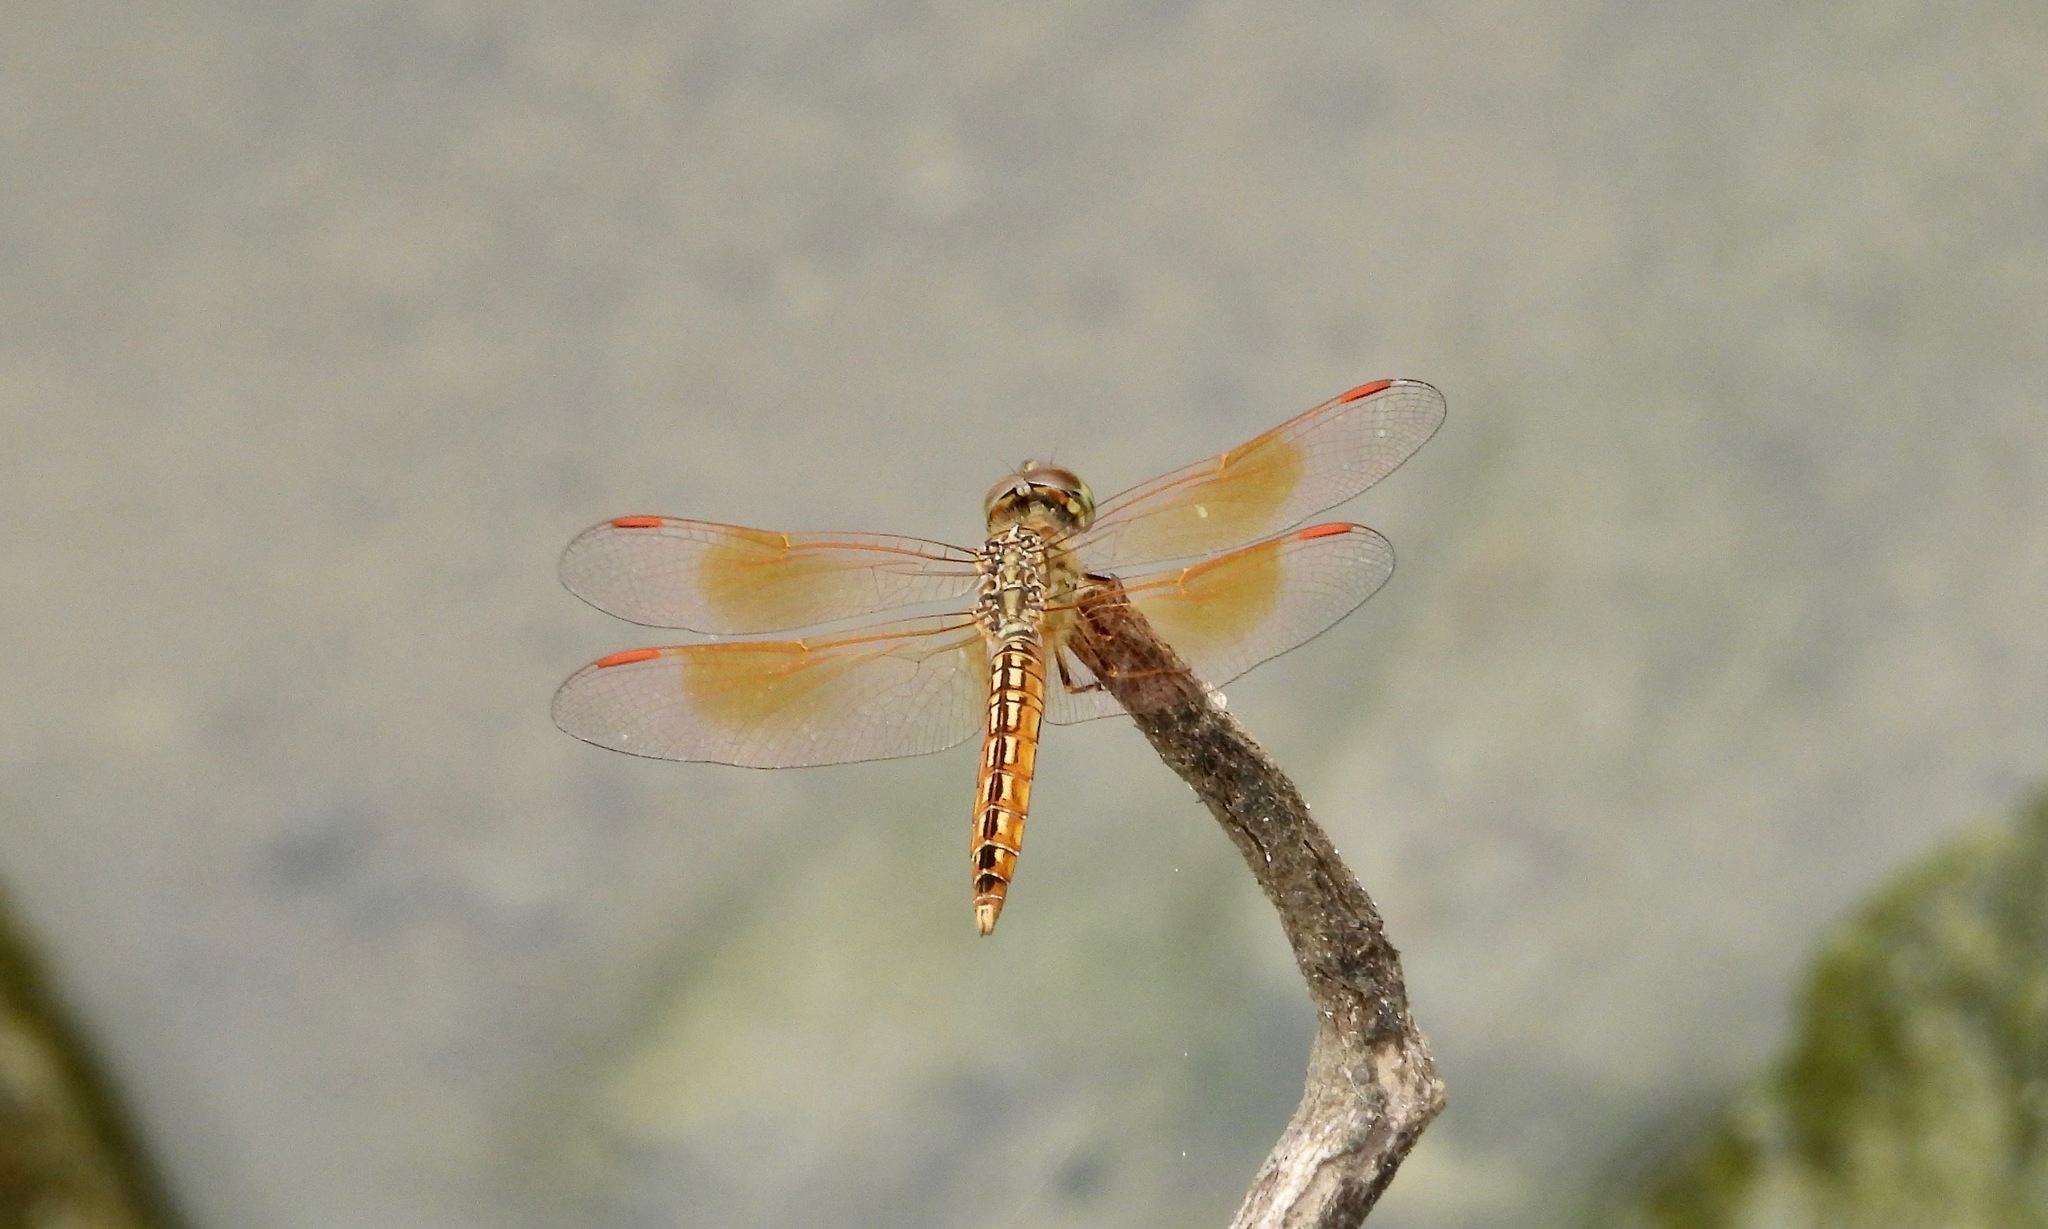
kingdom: Animalia
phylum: Arthropoda
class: Insecta
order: Odonata
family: Libellulidae
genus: Brachythemis
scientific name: Brachythemis contaminata
